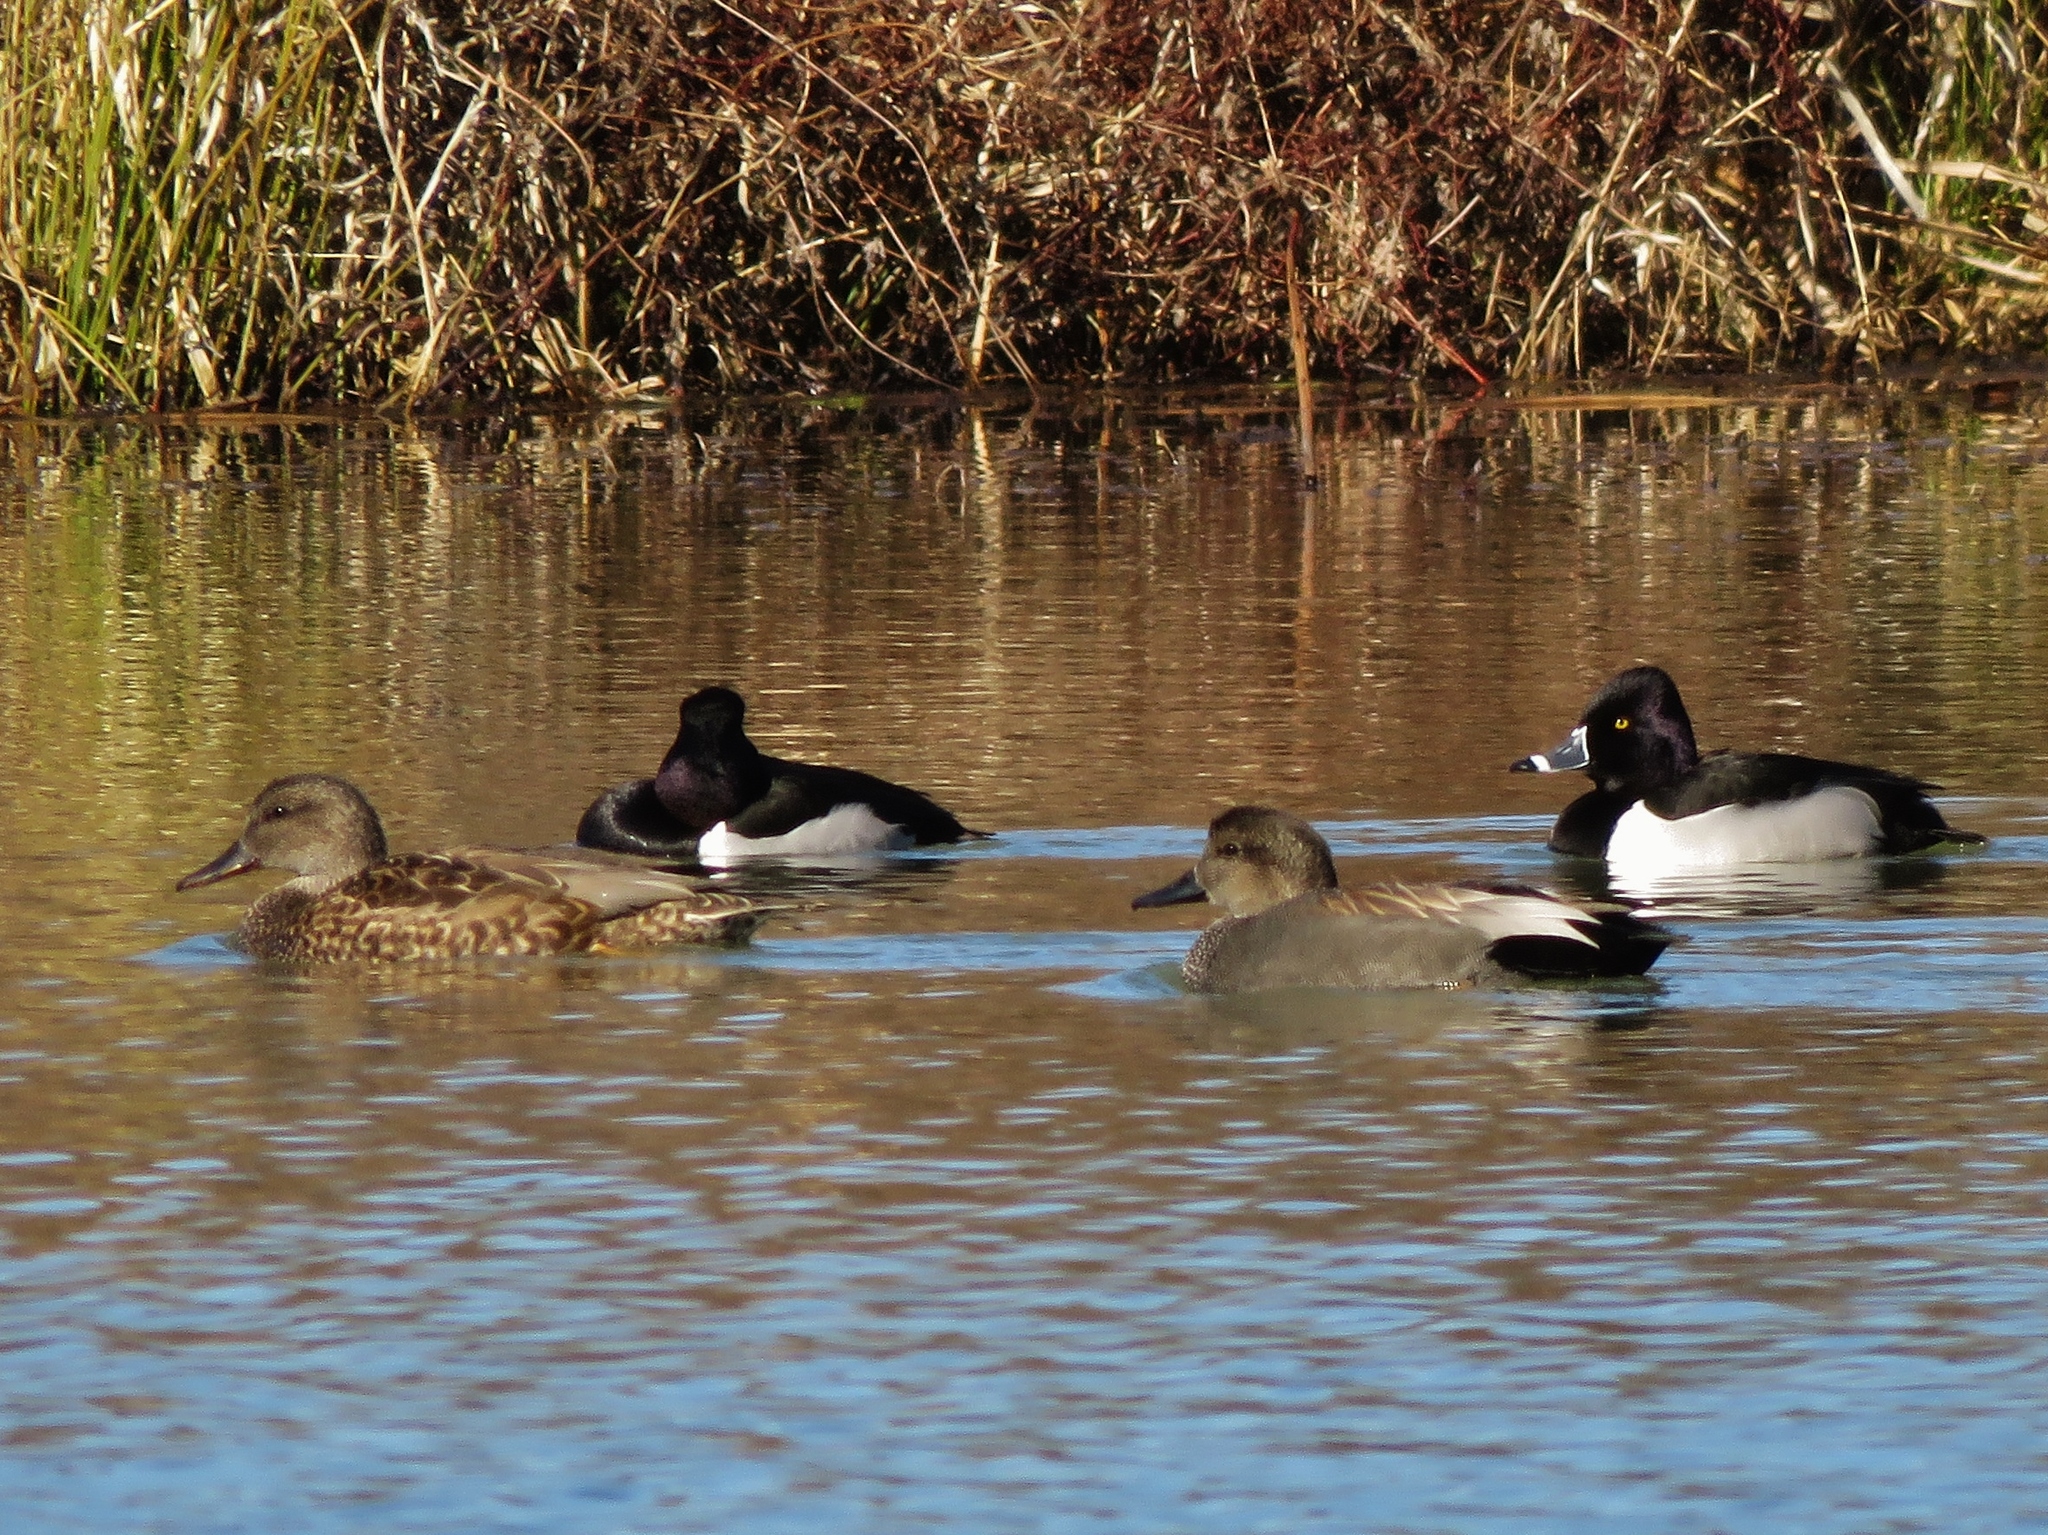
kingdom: Animalia
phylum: Chordata
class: Aves
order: Anseriformes
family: Anatidae
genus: Mareca
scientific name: Mareca strepera
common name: Gadwall
